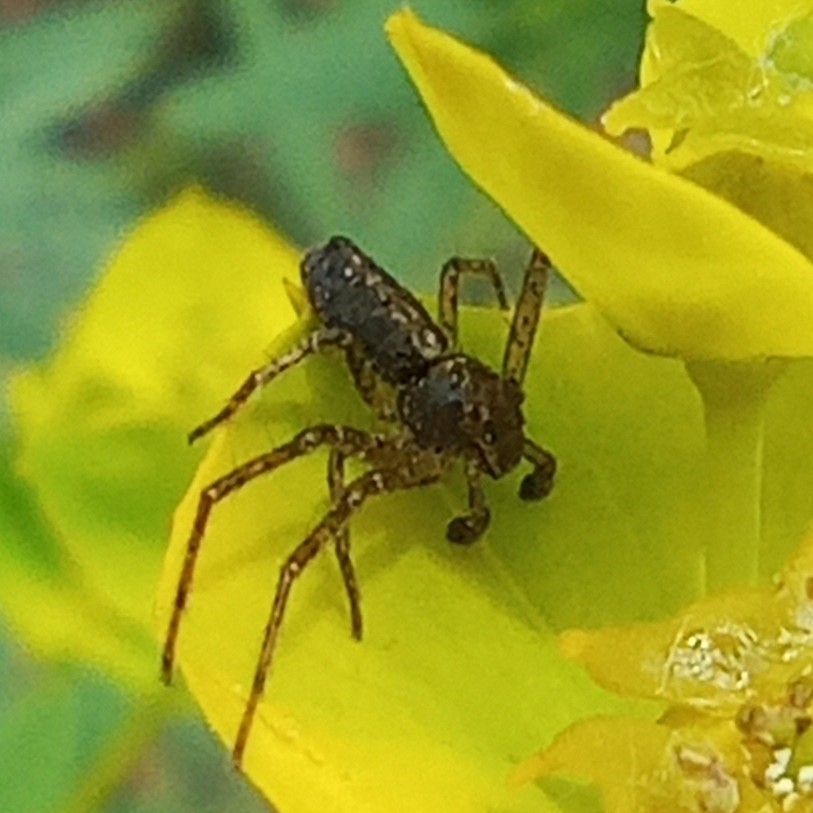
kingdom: Animalia
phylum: Arthropoda
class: Arachnida
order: Araneae
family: Thomisidae
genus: Tmarus
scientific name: Tmarus
